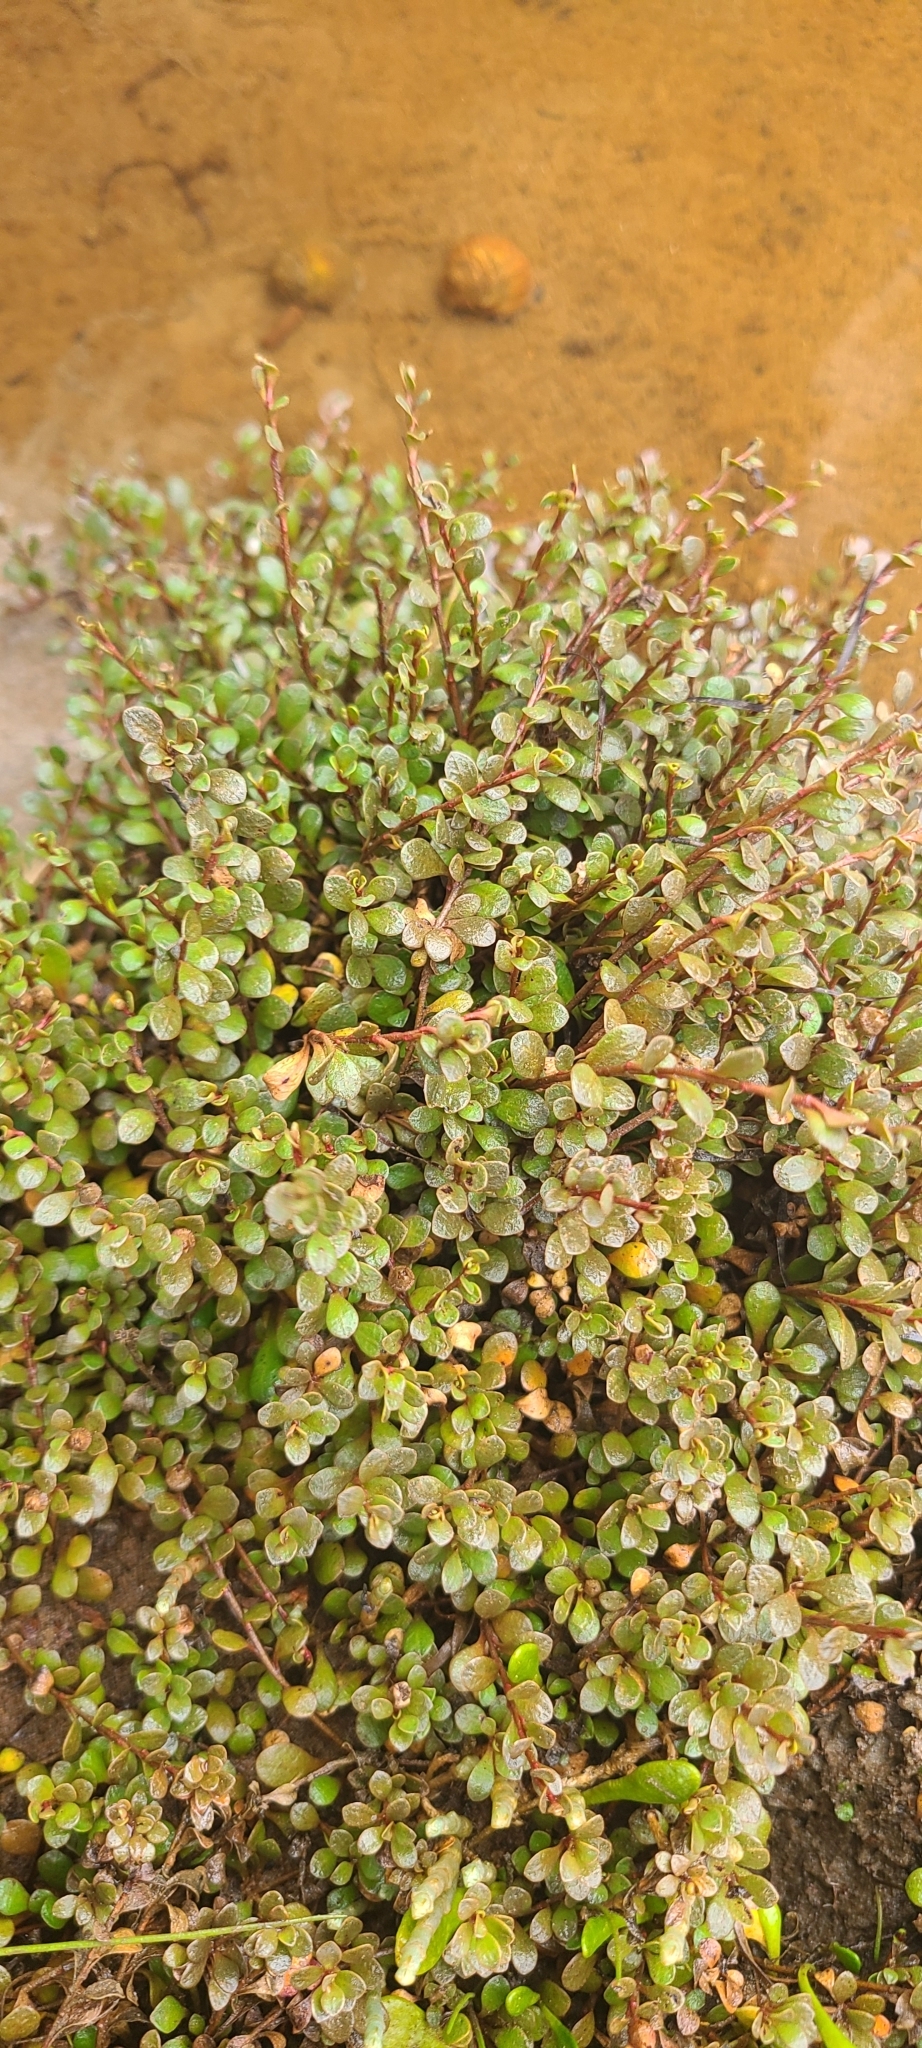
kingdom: Plantae
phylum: Tracheophyta
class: Magnoliopsida
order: Ericales
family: Primulaceae
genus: Samolus
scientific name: Samolus repens
